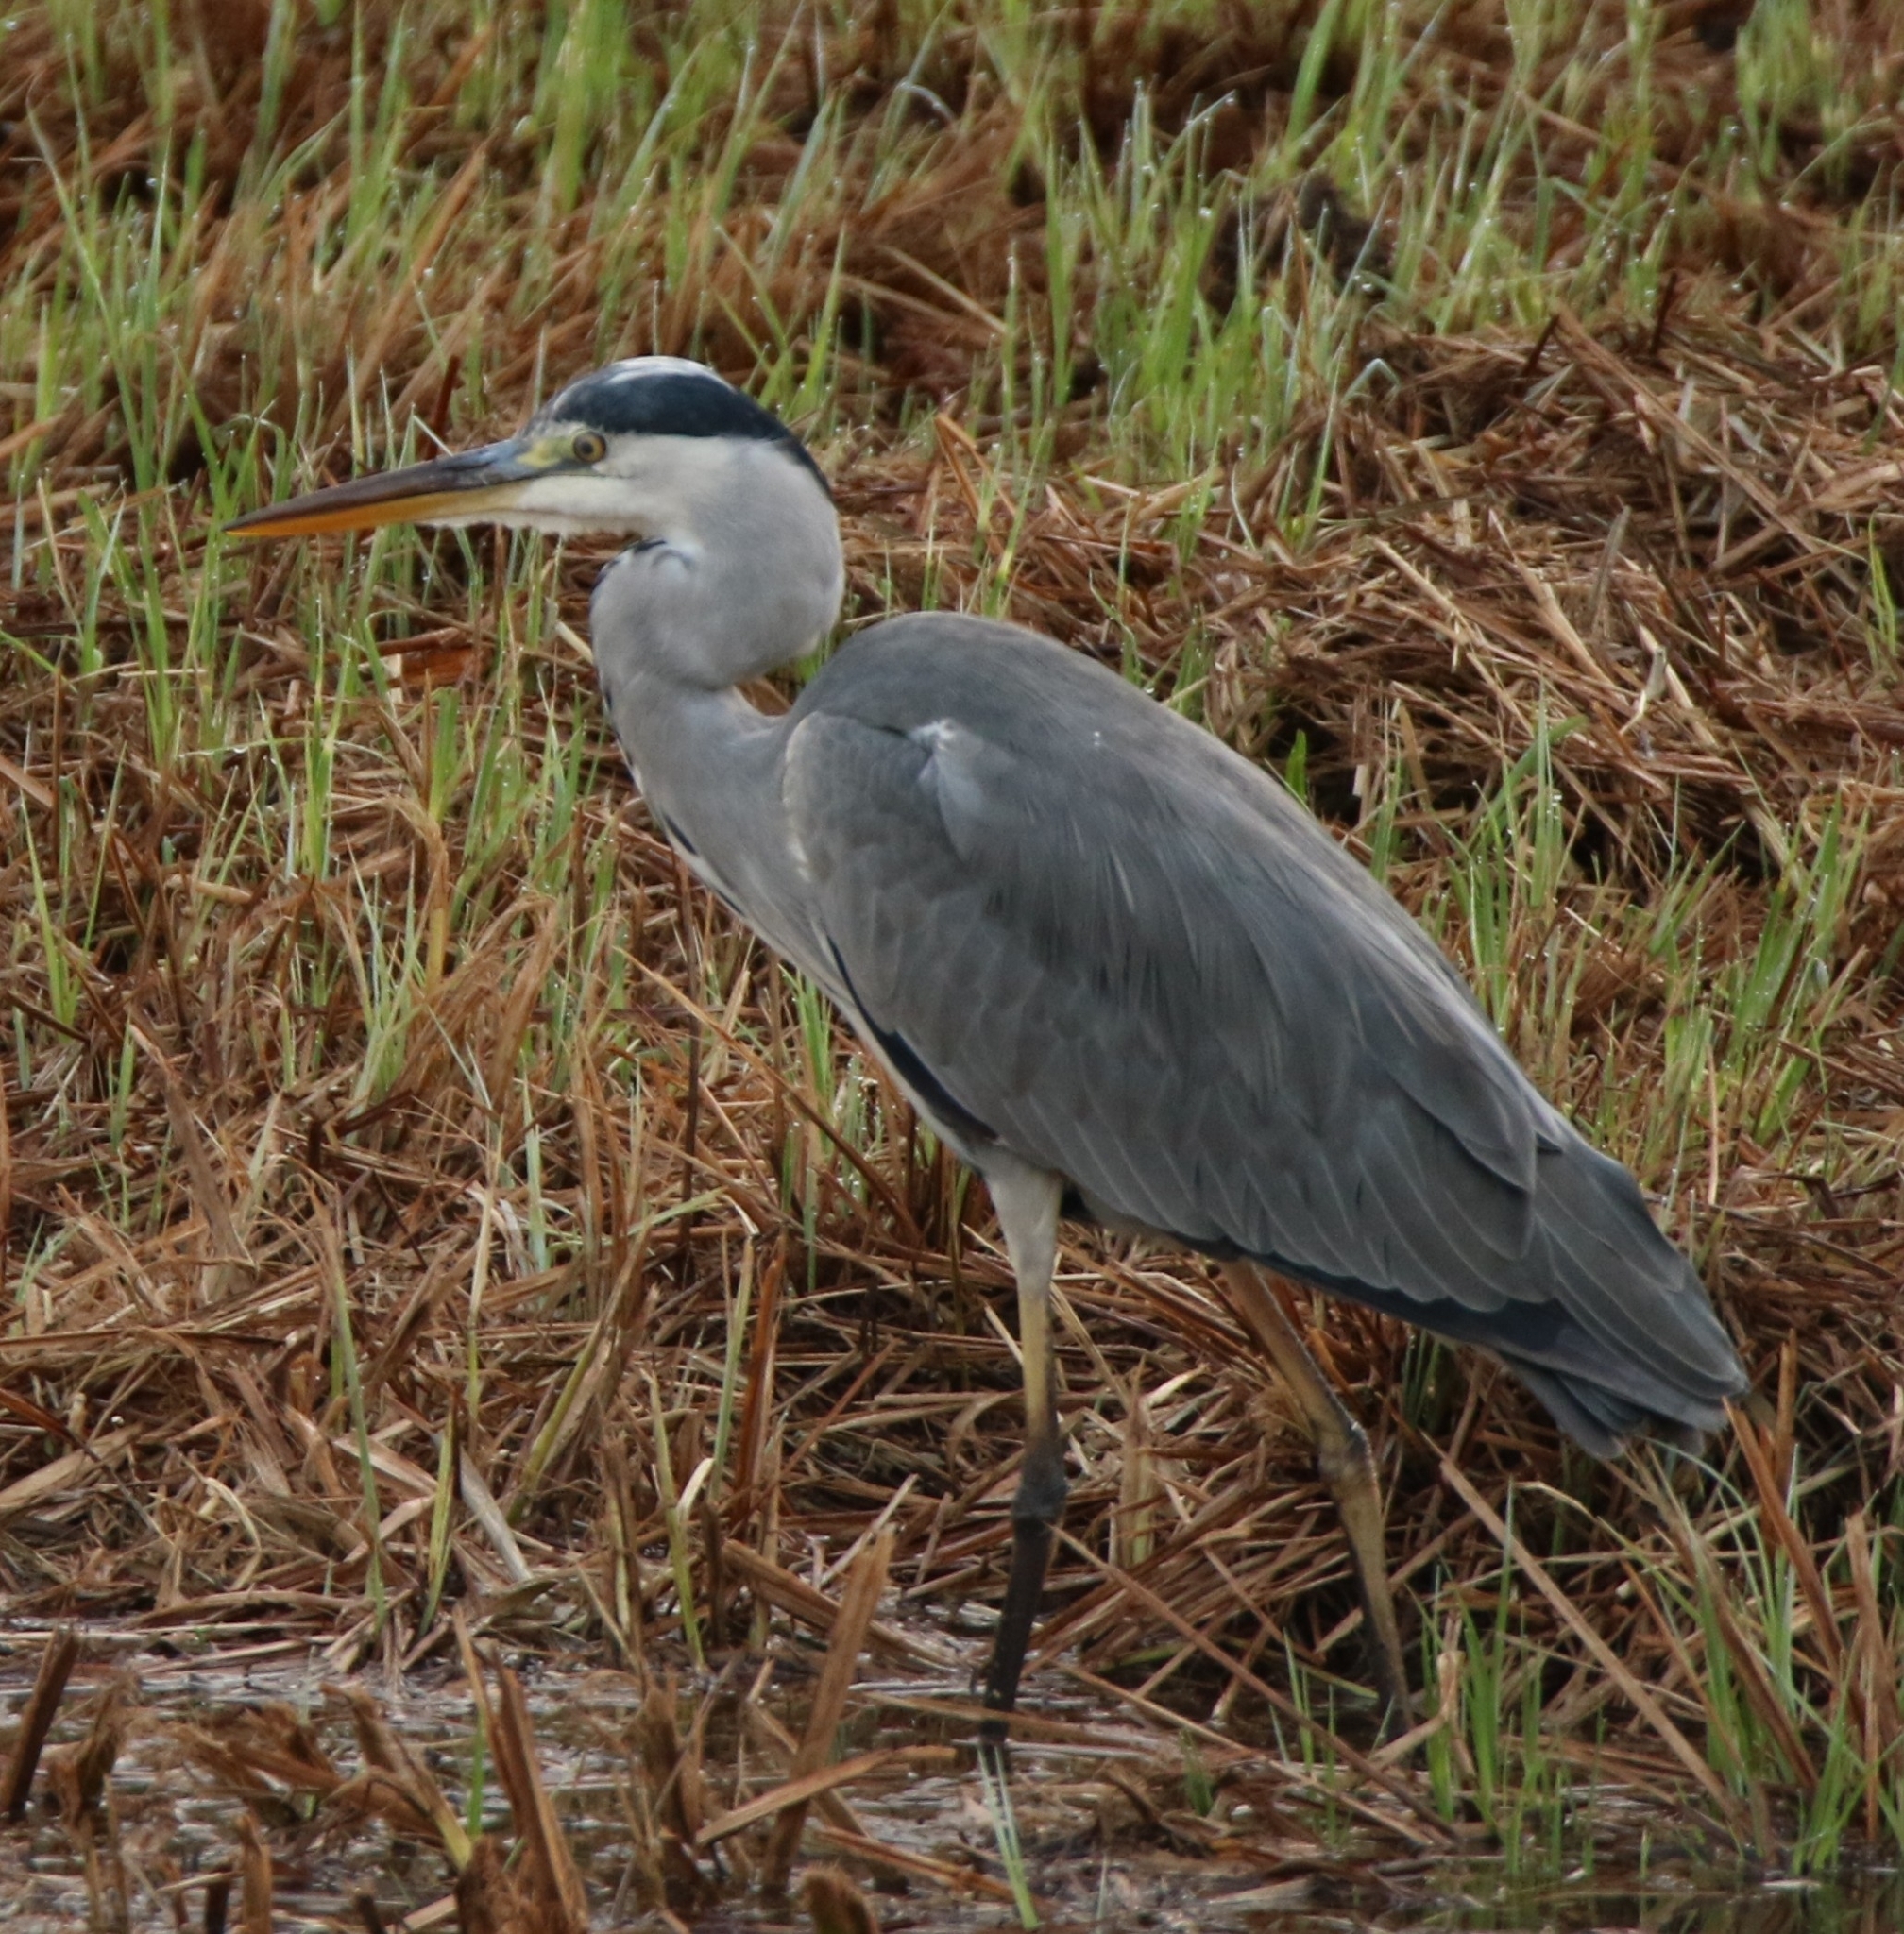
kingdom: Animalia
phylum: Chordata
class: Aves
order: Pelecaniformes
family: Ardeidae
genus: Ardea
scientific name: Ardea cinerea
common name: Grey heron
